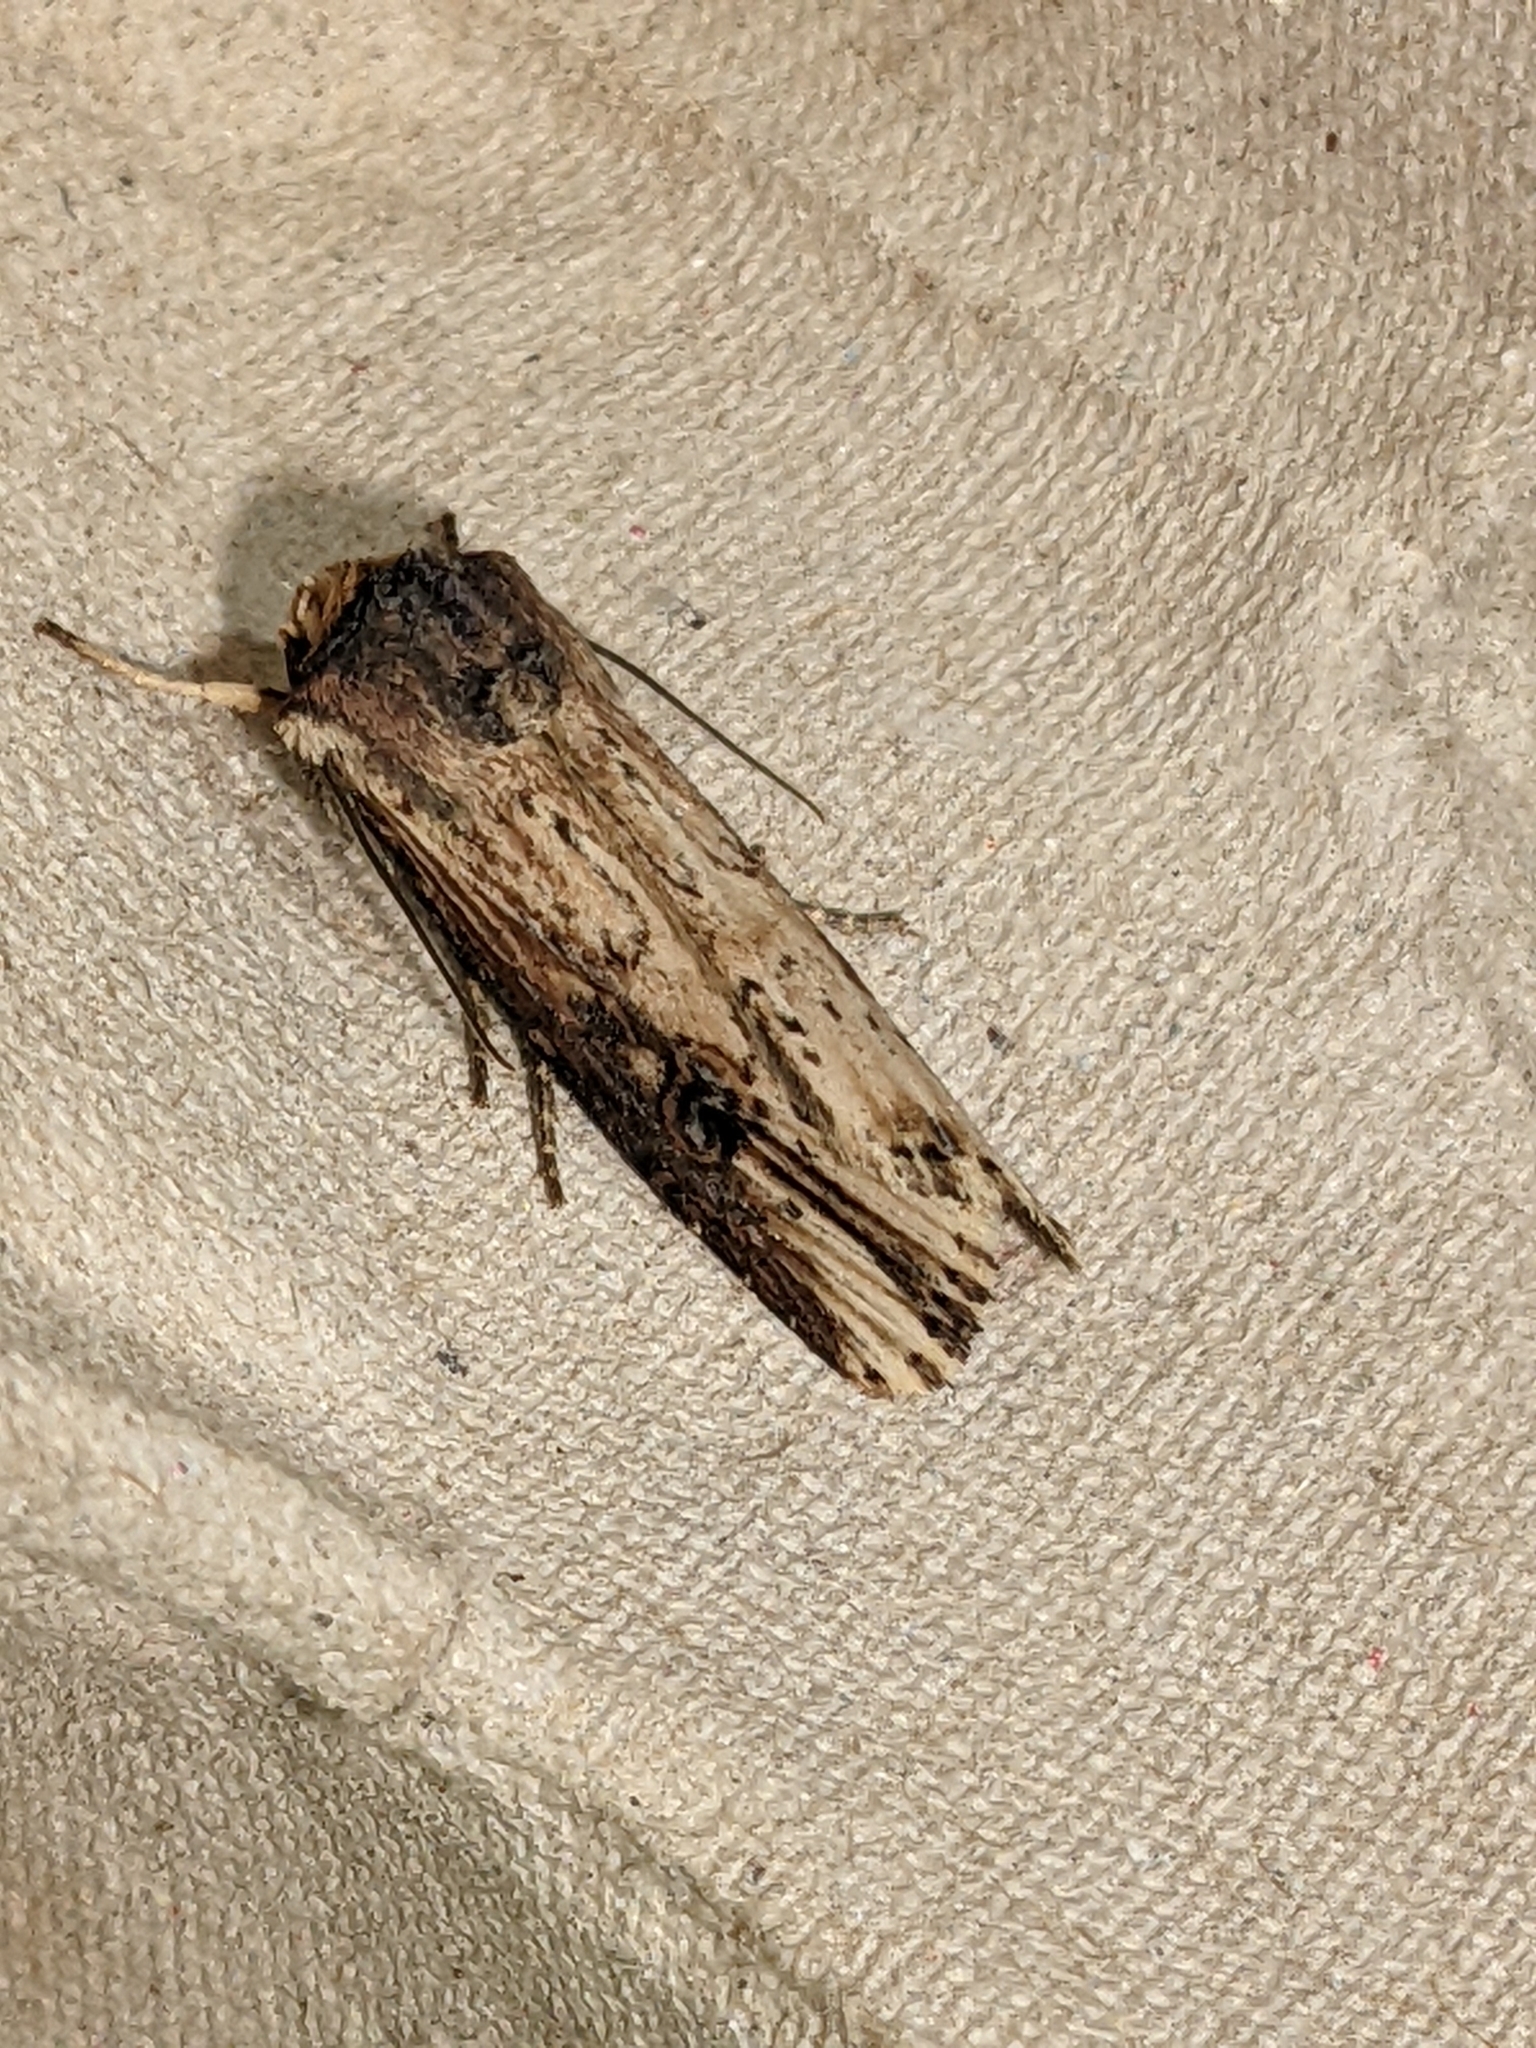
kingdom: Animalia
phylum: Arthropoda
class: Insecta
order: Lepidoptera
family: Noctuidae
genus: Axylia
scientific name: Axylia putris
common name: Flame
